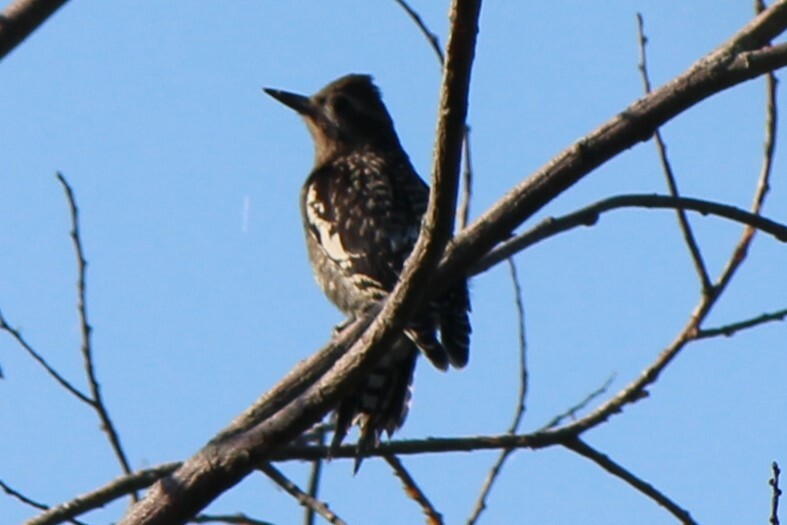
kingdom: Animalia
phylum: Chordata
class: Aves
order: Piciformes
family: Picidae
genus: Sphyrapicus
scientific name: Sphyrapicus varius
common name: Yellow-bellied sapsucker
